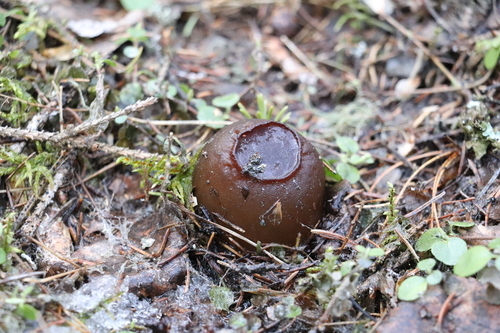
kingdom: Fungi
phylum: Ascomycota
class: Pezizomycetes
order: Pezizales
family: Sarcosomataceae
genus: Sarcosoma
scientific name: Sarcosoma globosum
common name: Charred-pancake cup
